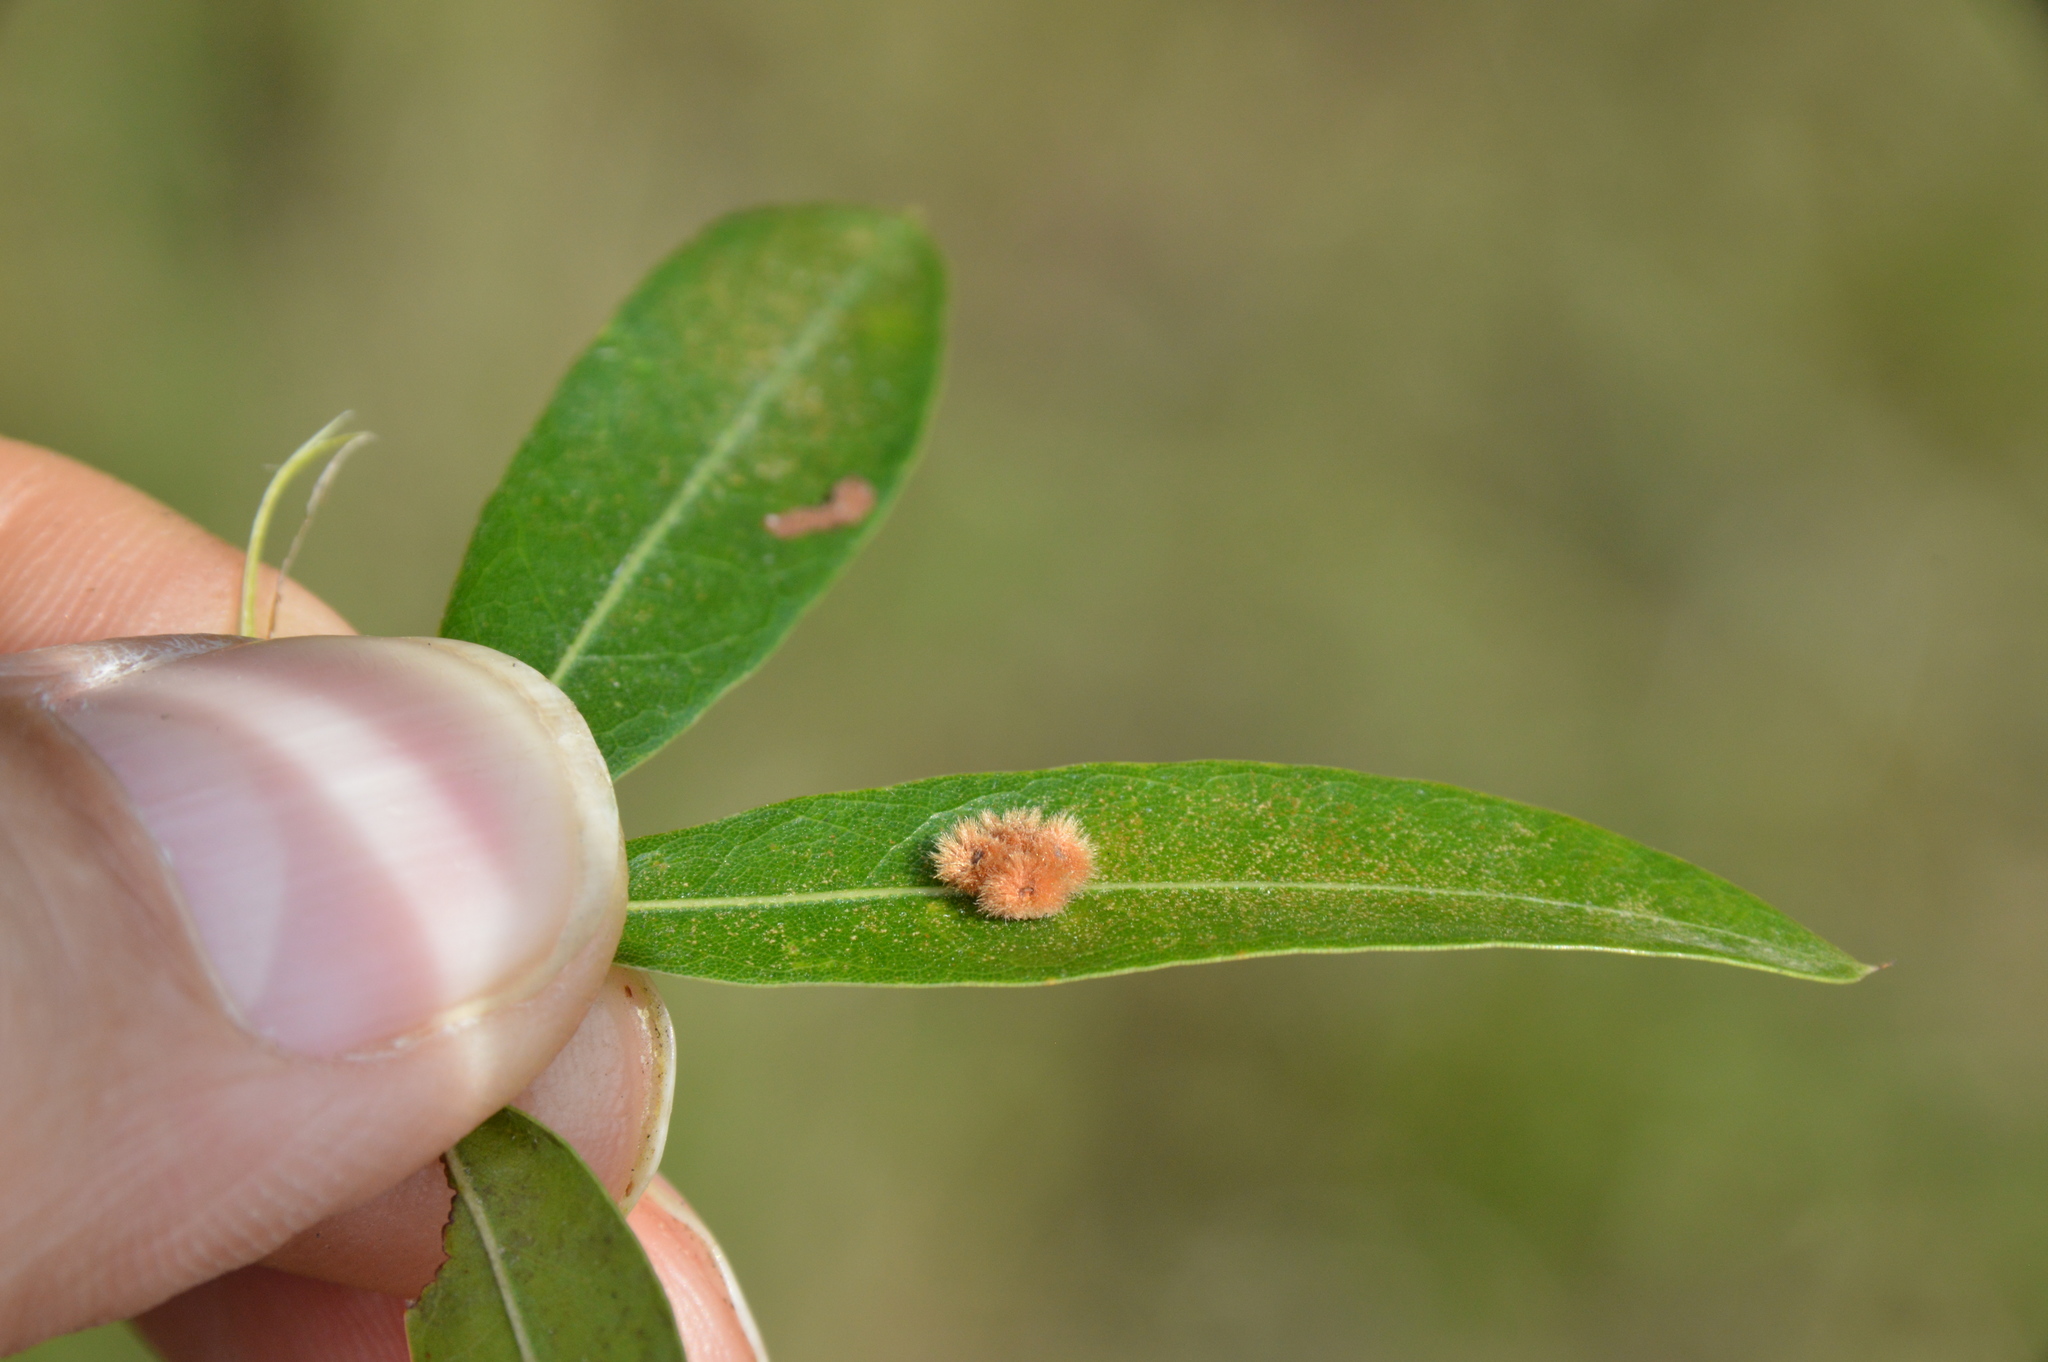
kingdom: Animalia
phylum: Arthropoda
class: Insecta
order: Hymenoptera
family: Cynipidae
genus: Callirhytis
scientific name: Callirhytis
